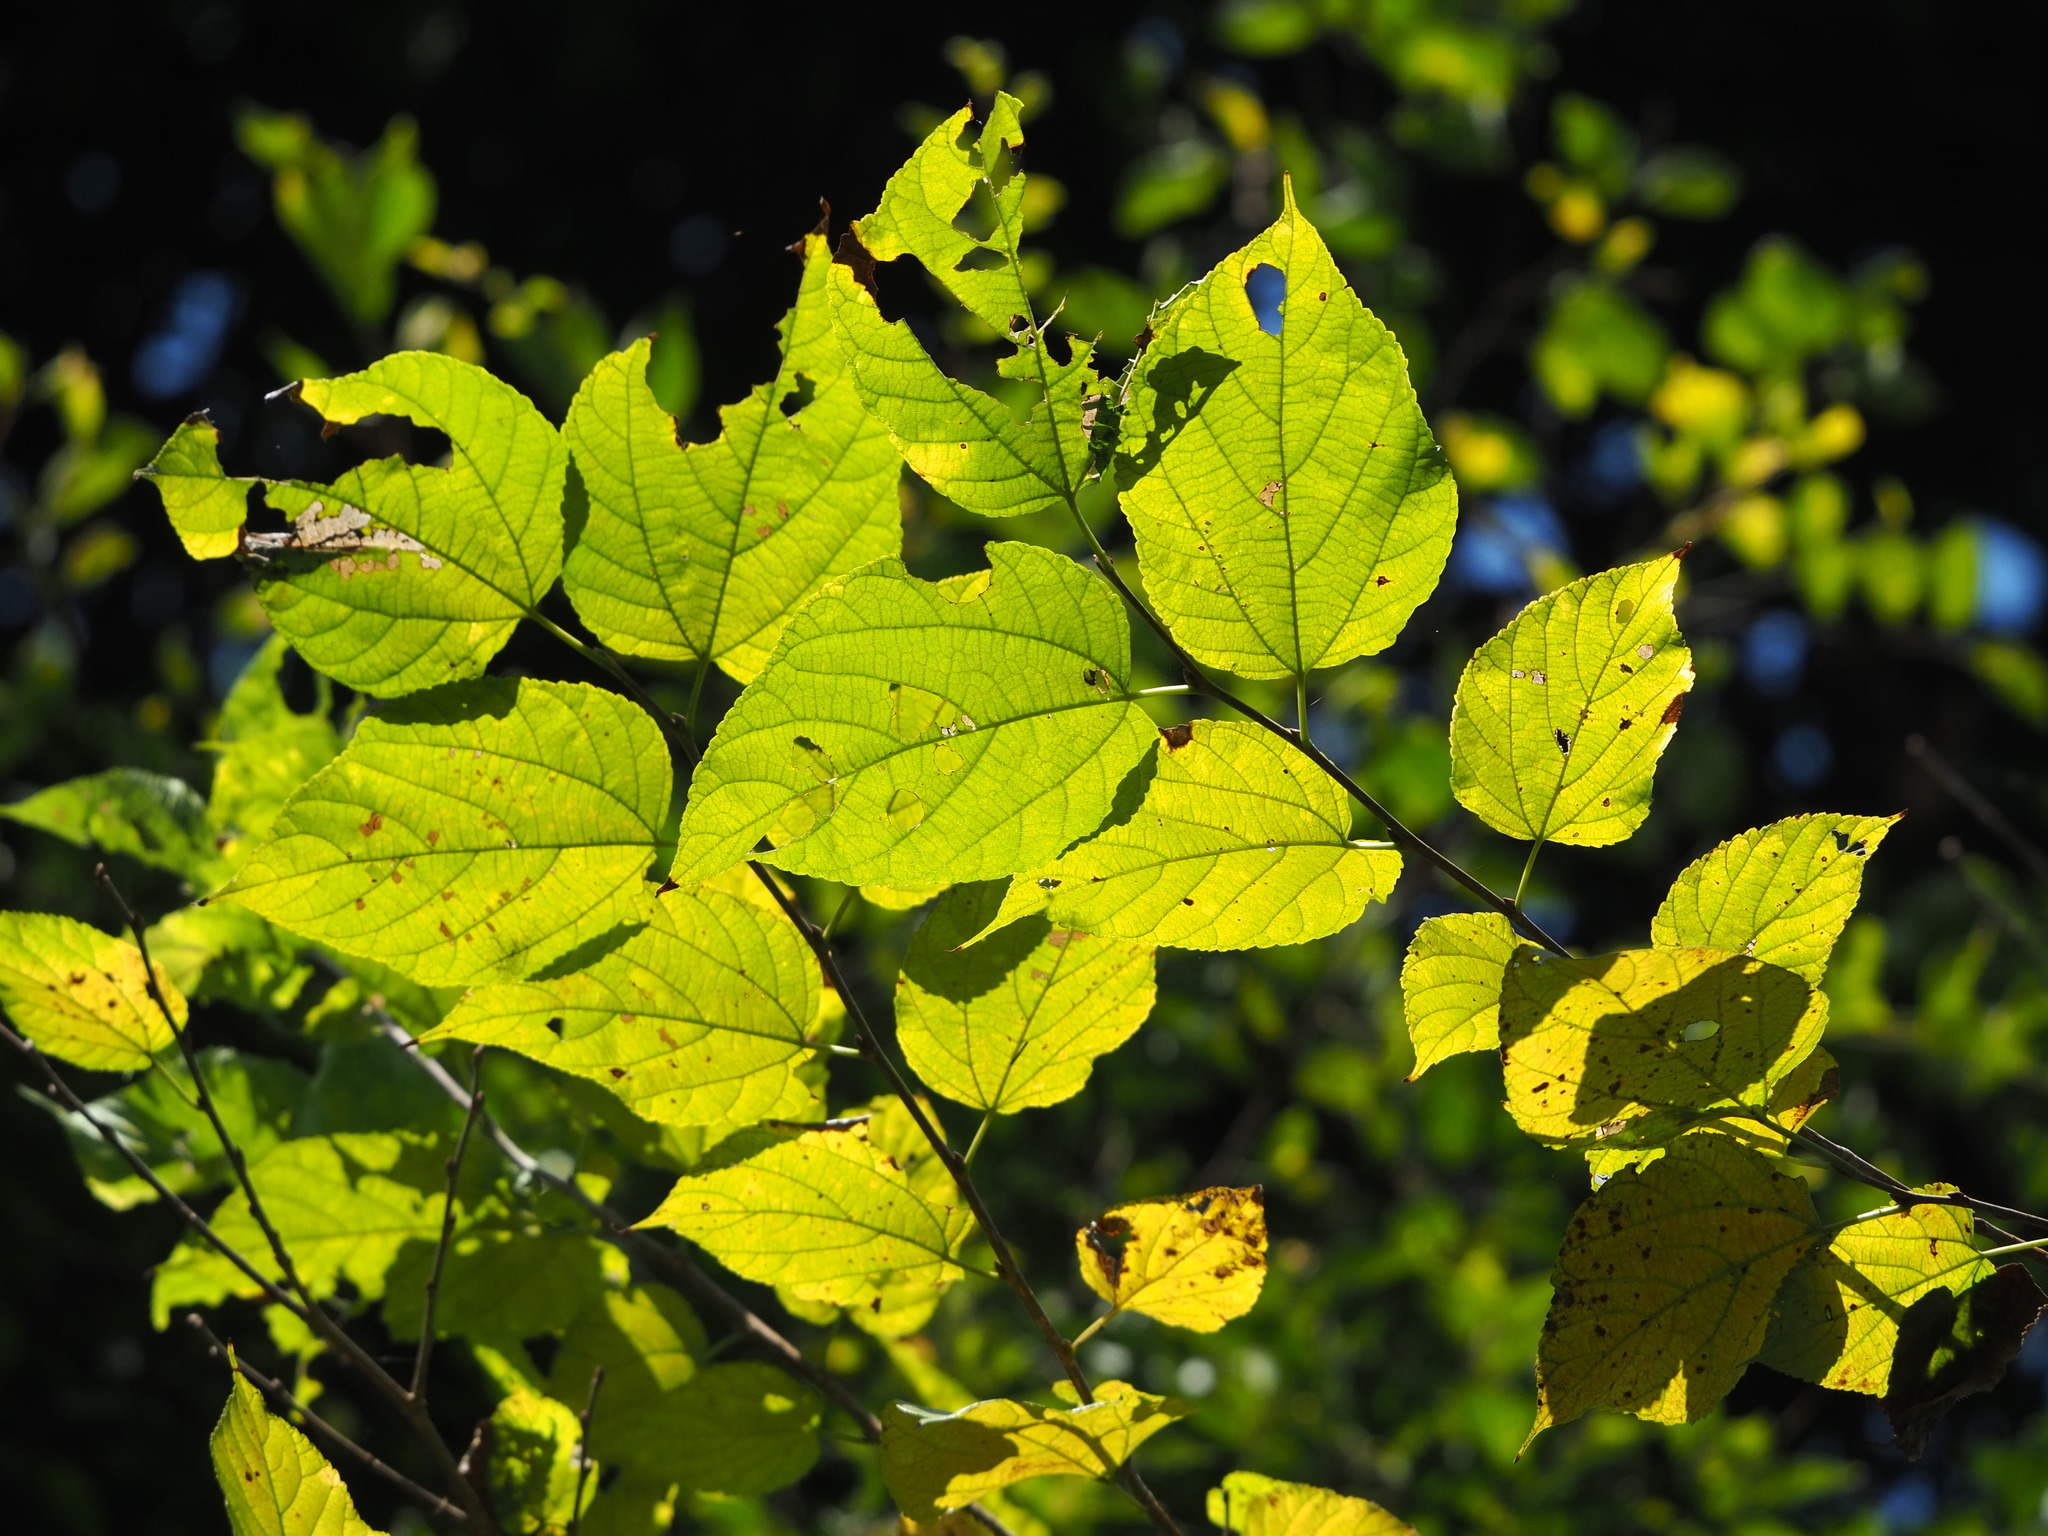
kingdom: Plantae
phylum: Tracheophyta
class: Magnoliopsida
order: Rosales
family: Moraceae
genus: Morus
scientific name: Morus indica
